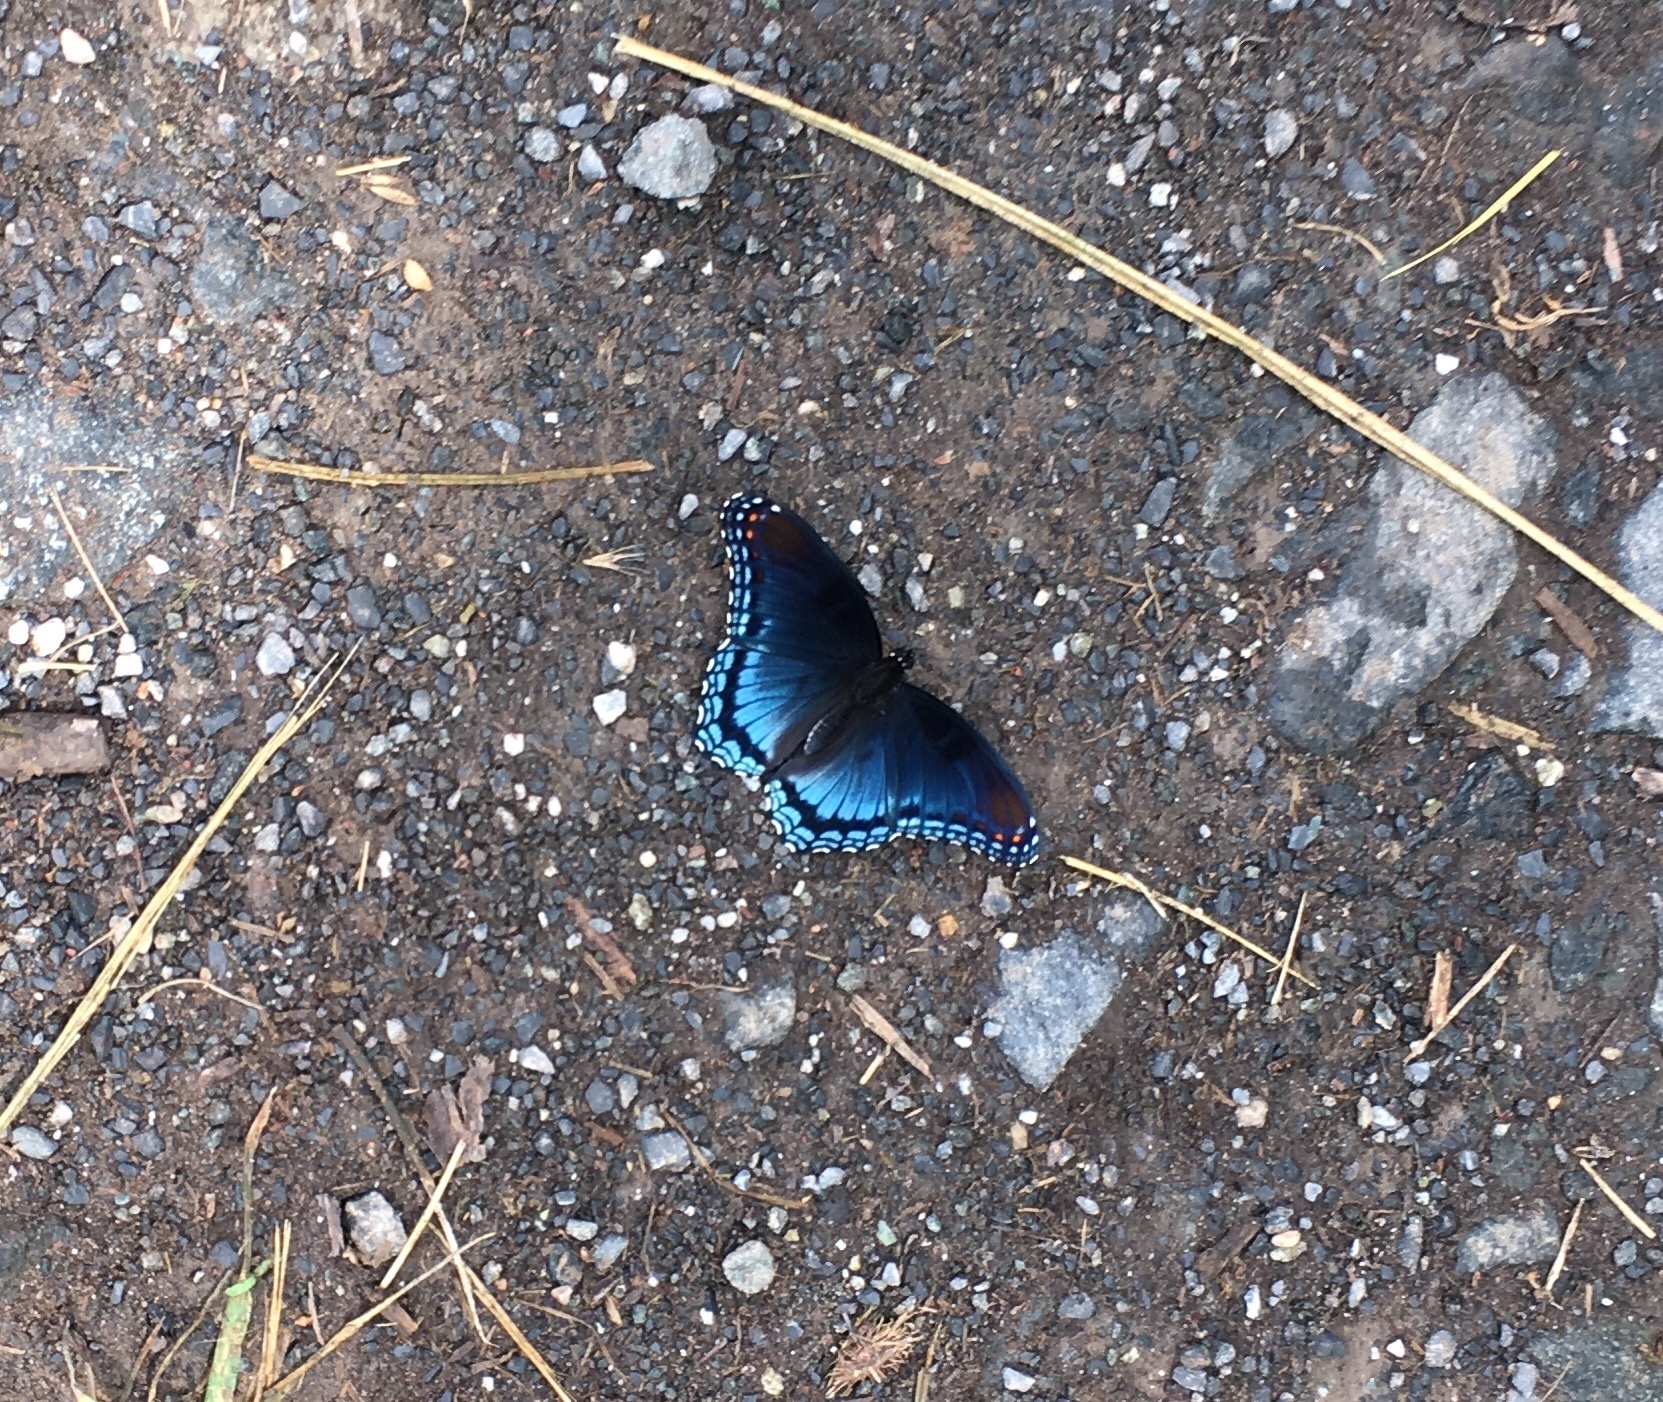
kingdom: Animalia
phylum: Arthropoda
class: Insecta
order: Lepidoptera
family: Nymphalidae
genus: Limenitis
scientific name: Limenitis astyanax
